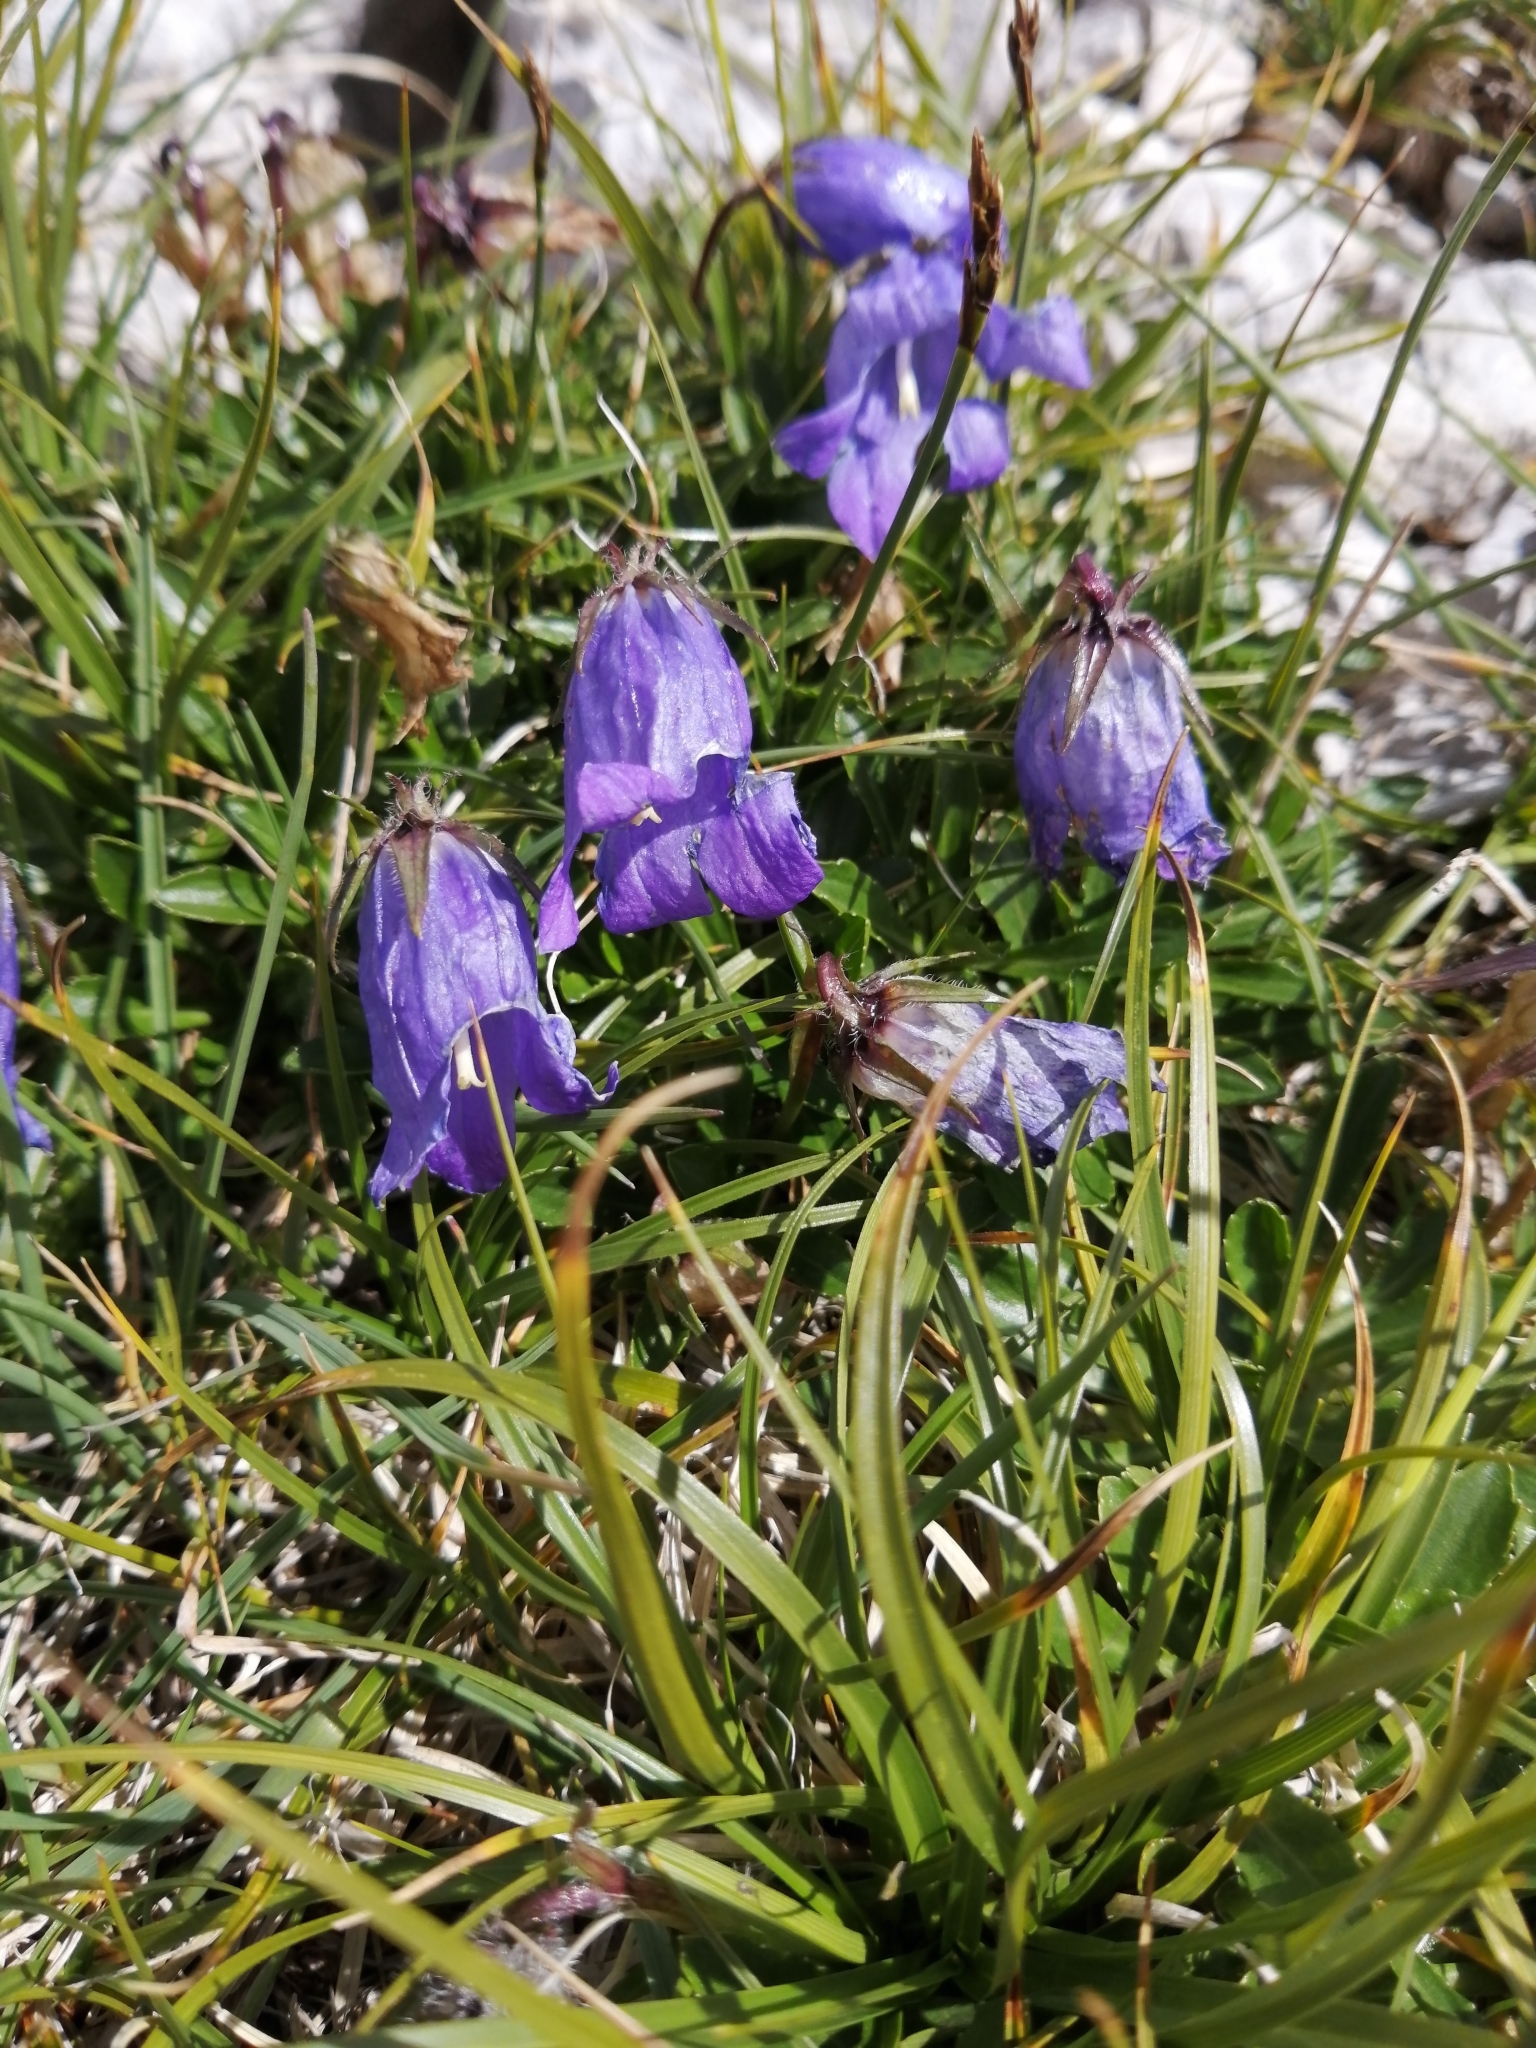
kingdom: Plantae
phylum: Tracheophyta
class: Magnoliopsida
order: Asterales
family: Campanulaceae
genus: Campanula
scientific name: Campanula saxifraga
